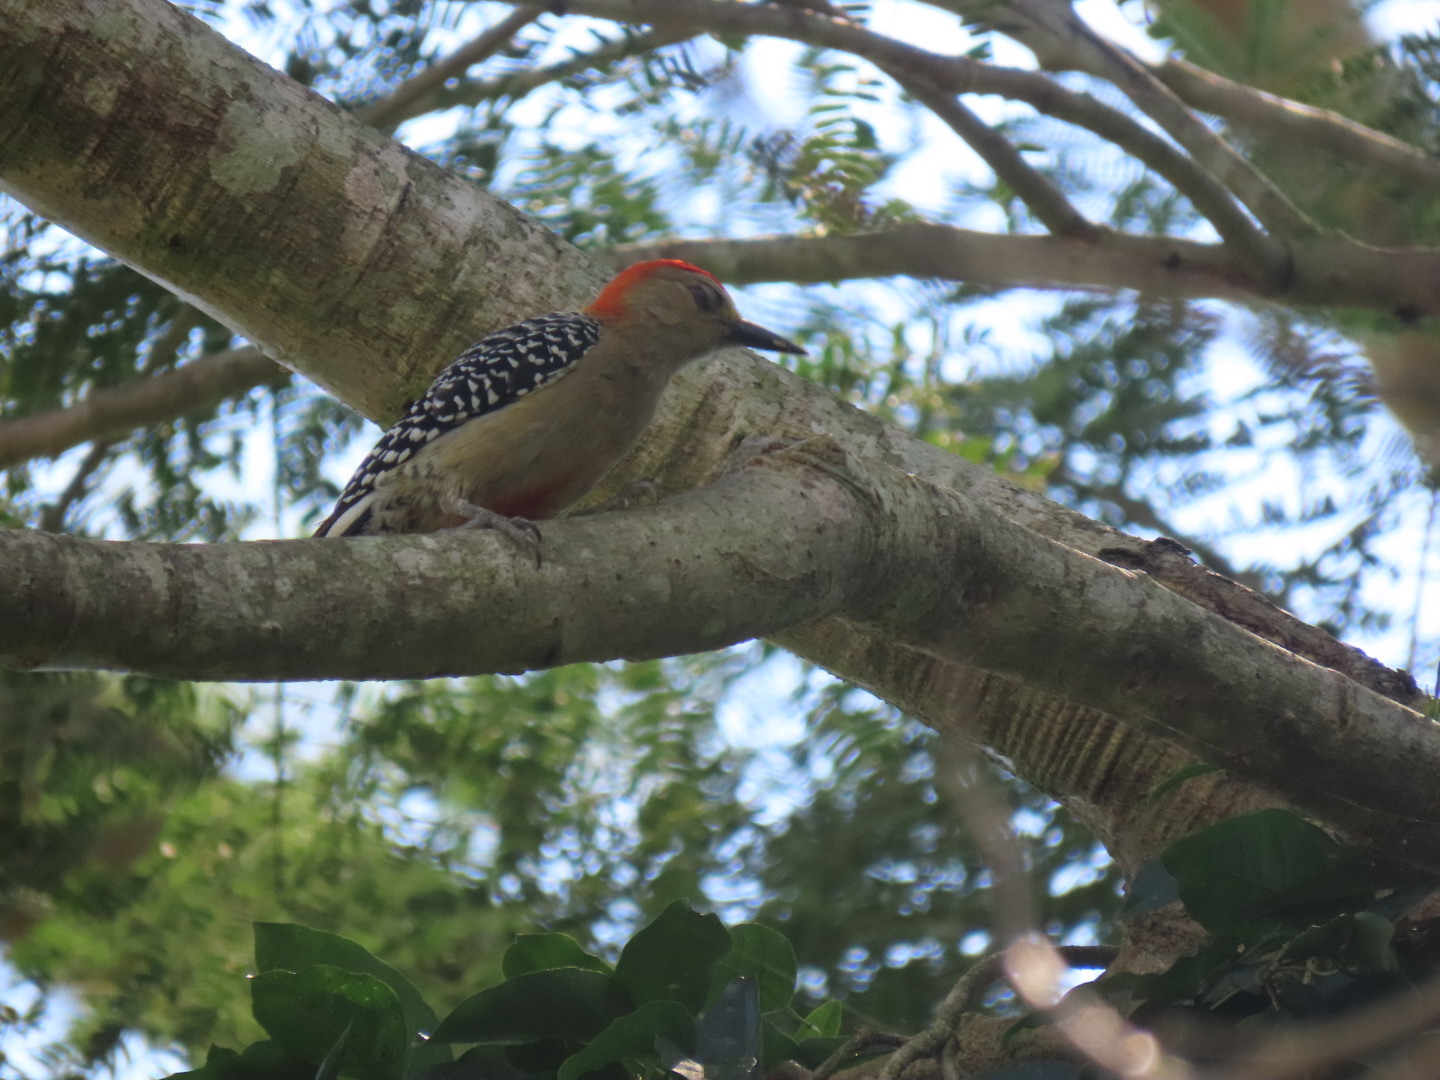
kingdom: Animalia
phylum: Chordata
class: Aves
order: Piciformes
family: Picidae
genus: Melanerpes
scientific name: Melanerpes rubricapillus
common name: Red-crowned woodpecker
